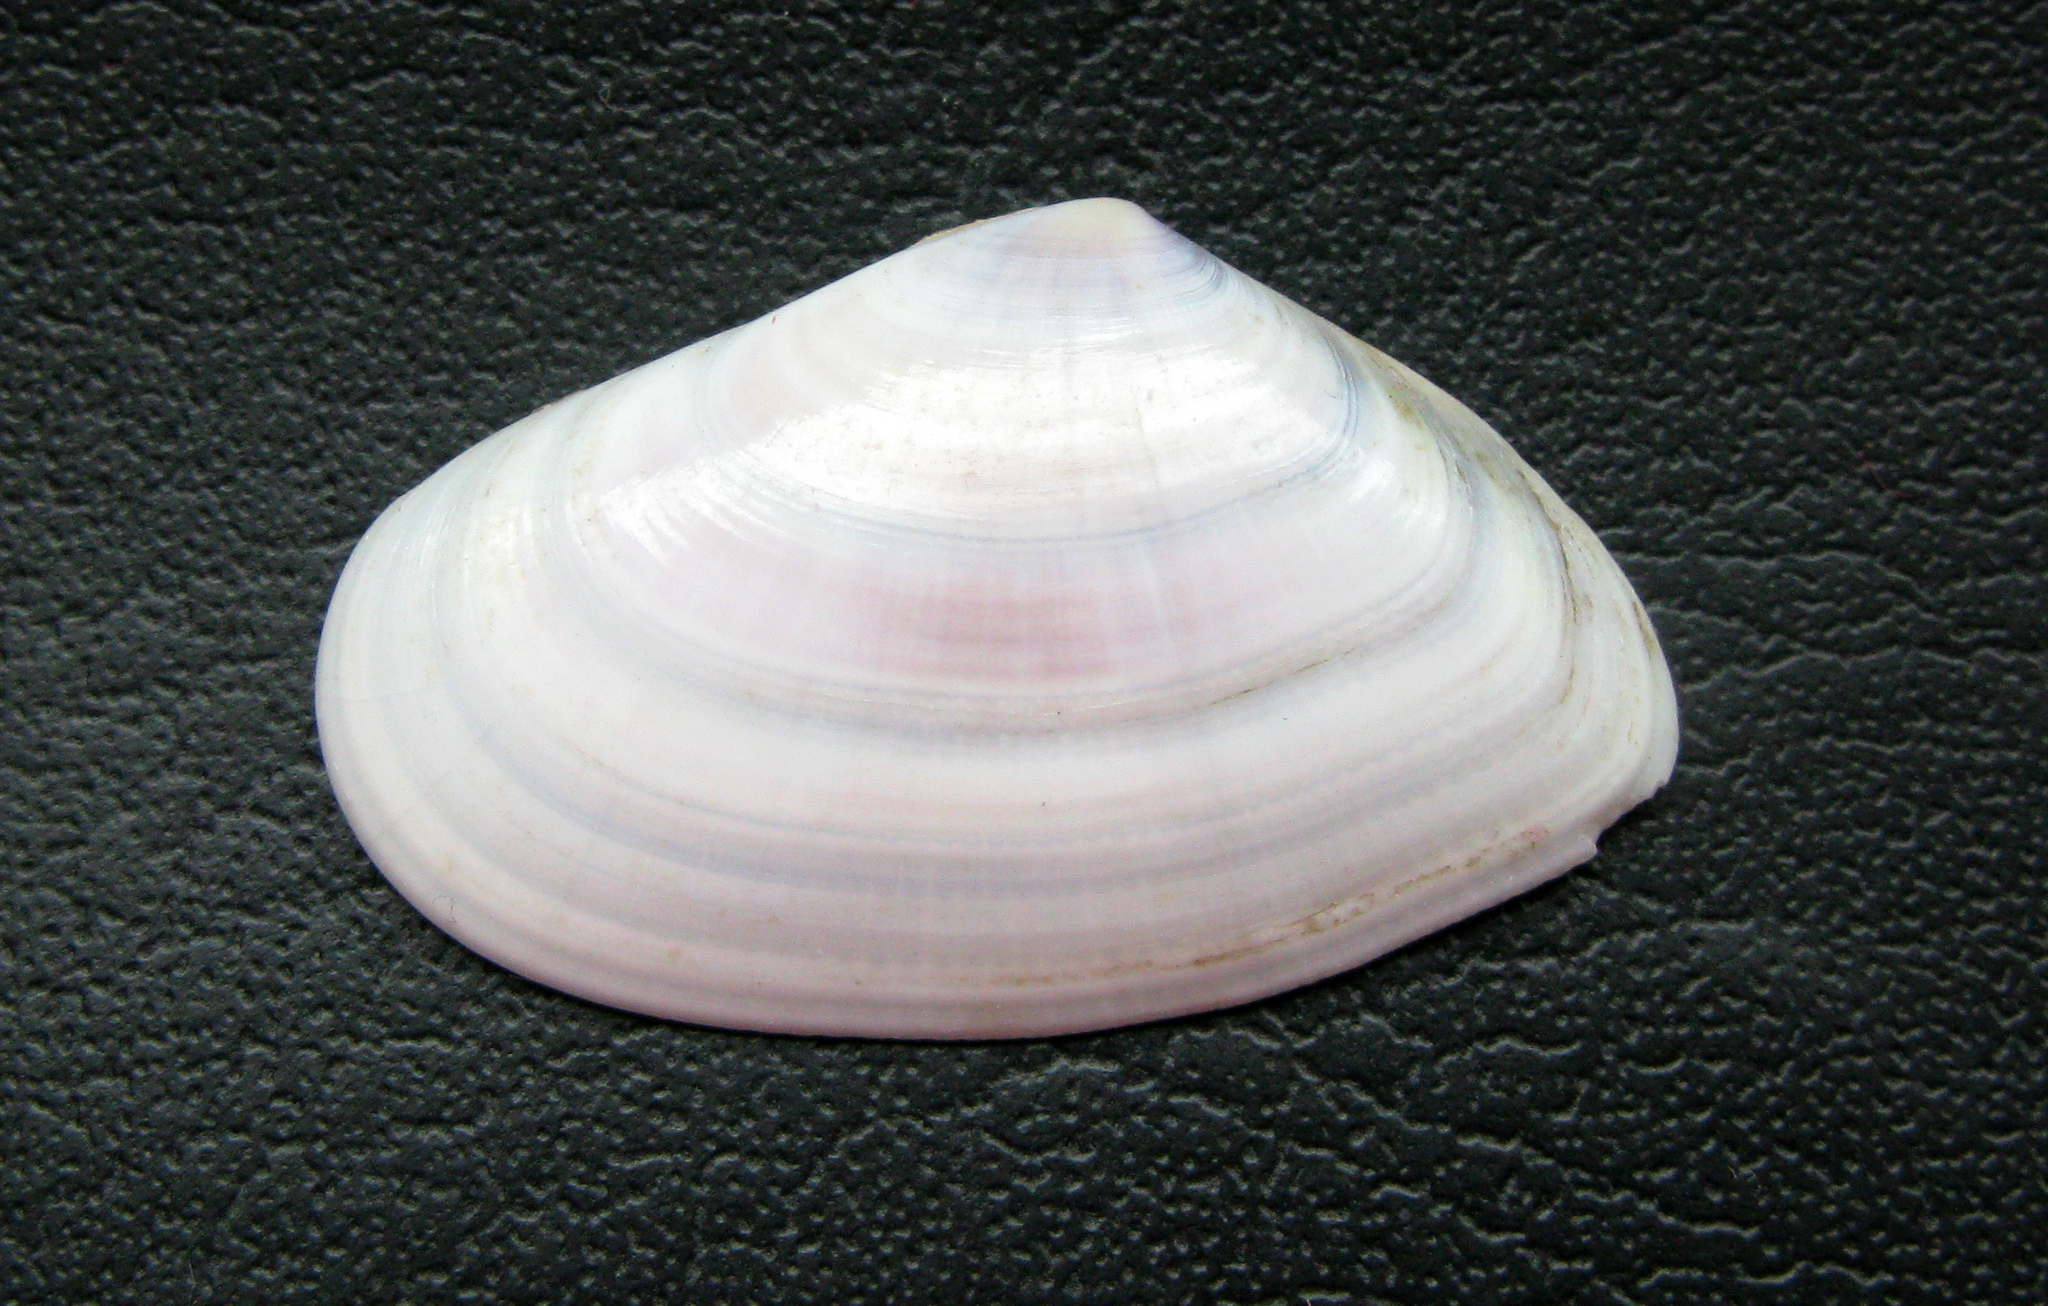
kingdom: Animalia
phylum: Mollusca
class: Bivalvia
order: Cardiida
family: Donacidae
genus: Donax
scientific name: Donax trunculus
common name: Truncate donax
